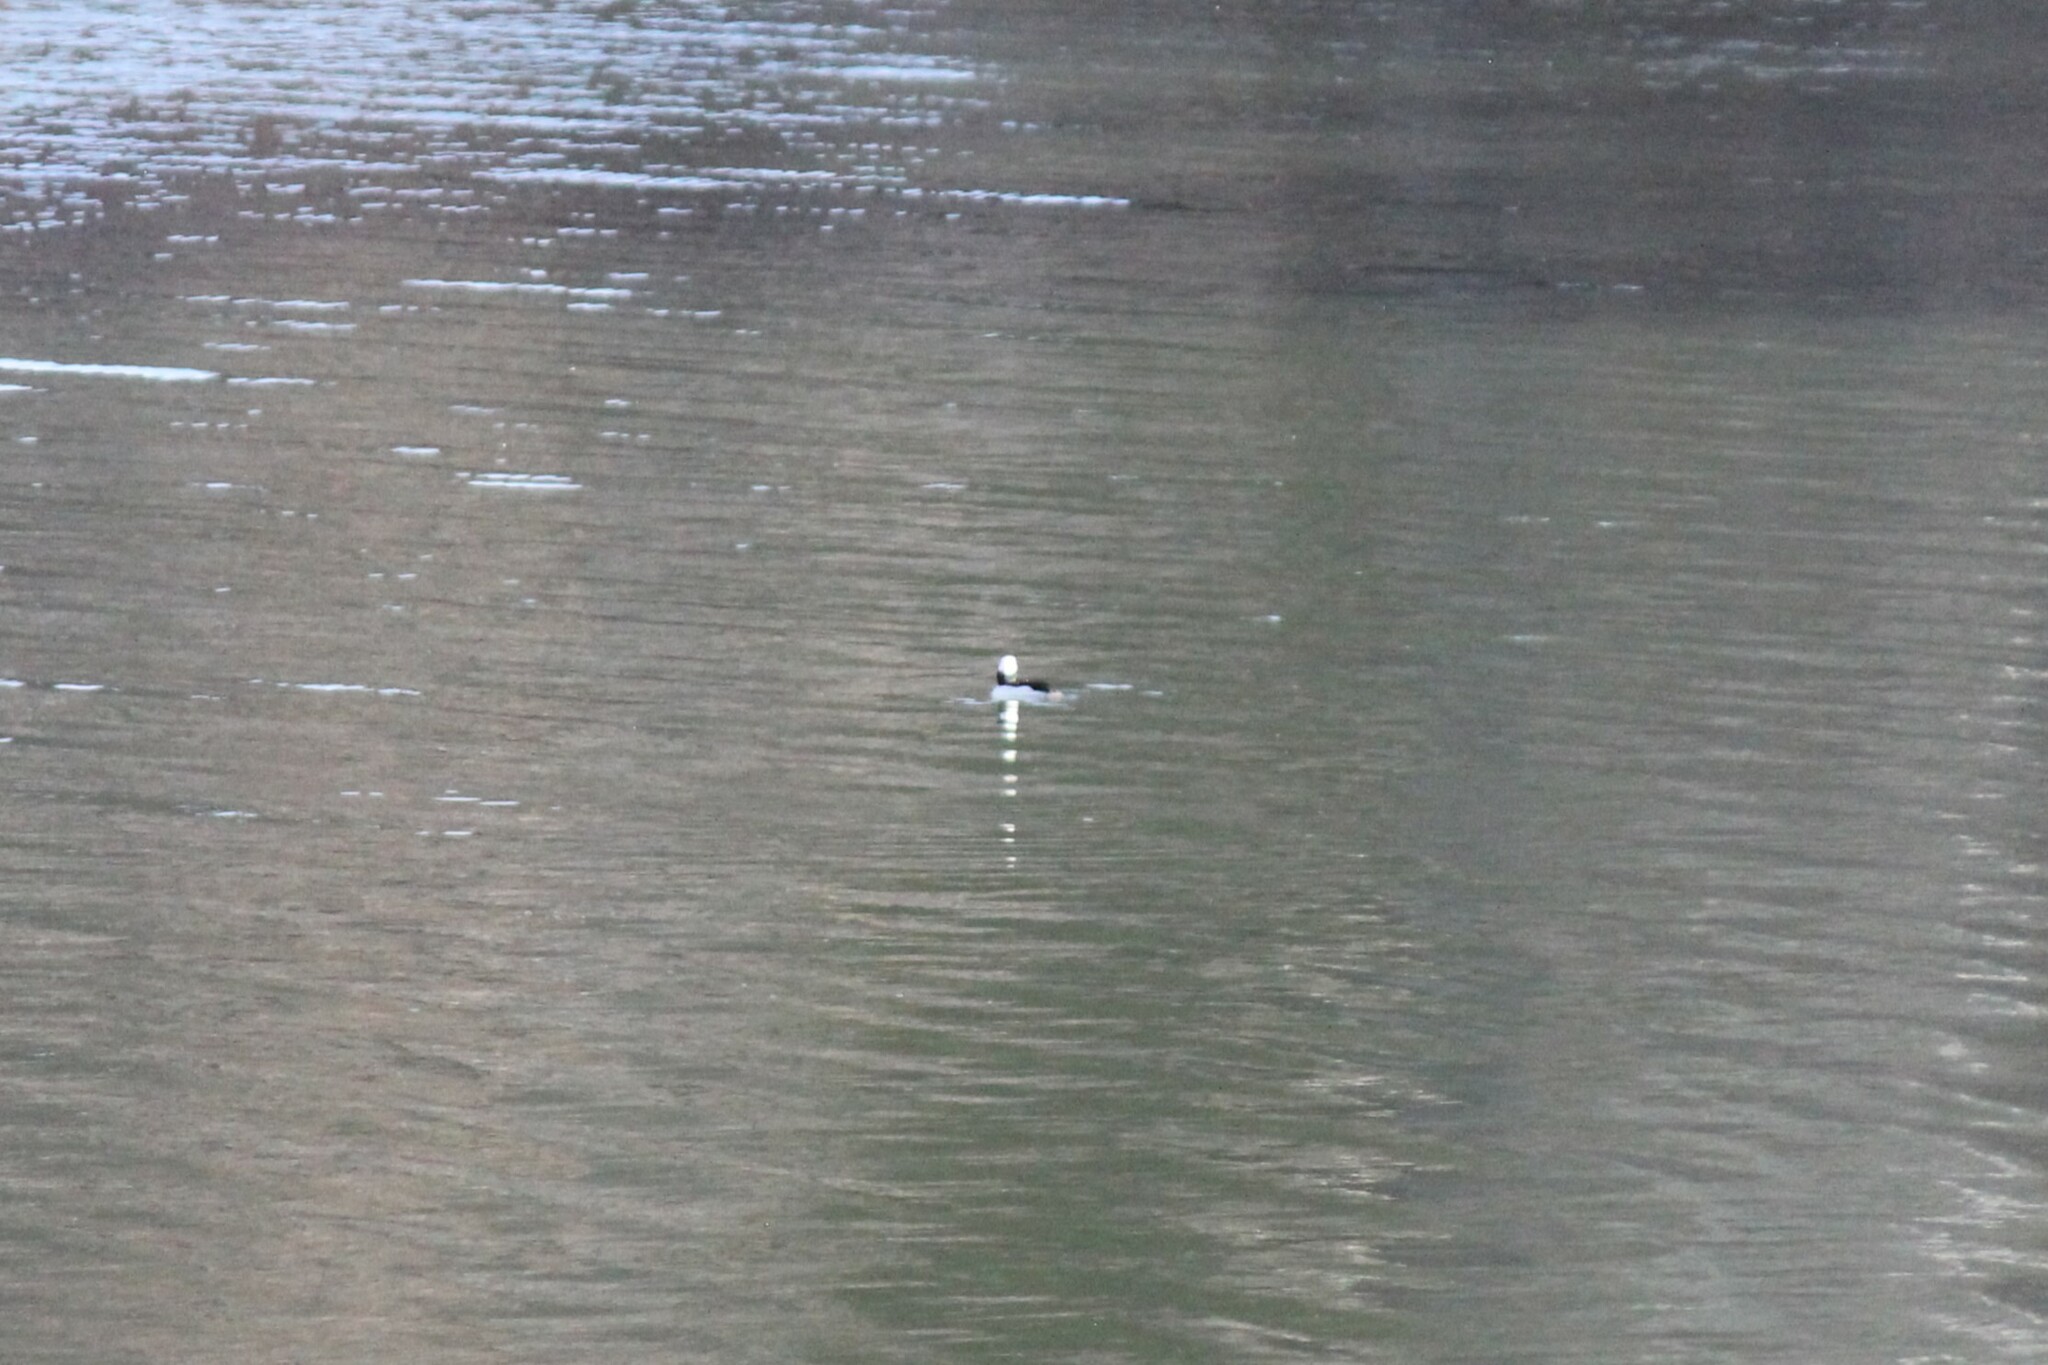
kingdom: Animalia
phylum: Chordata
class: Aves
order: Anseriformes
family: Anatidae
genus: Bucephala
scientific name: Bucephala albeola
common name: Bufflehead
